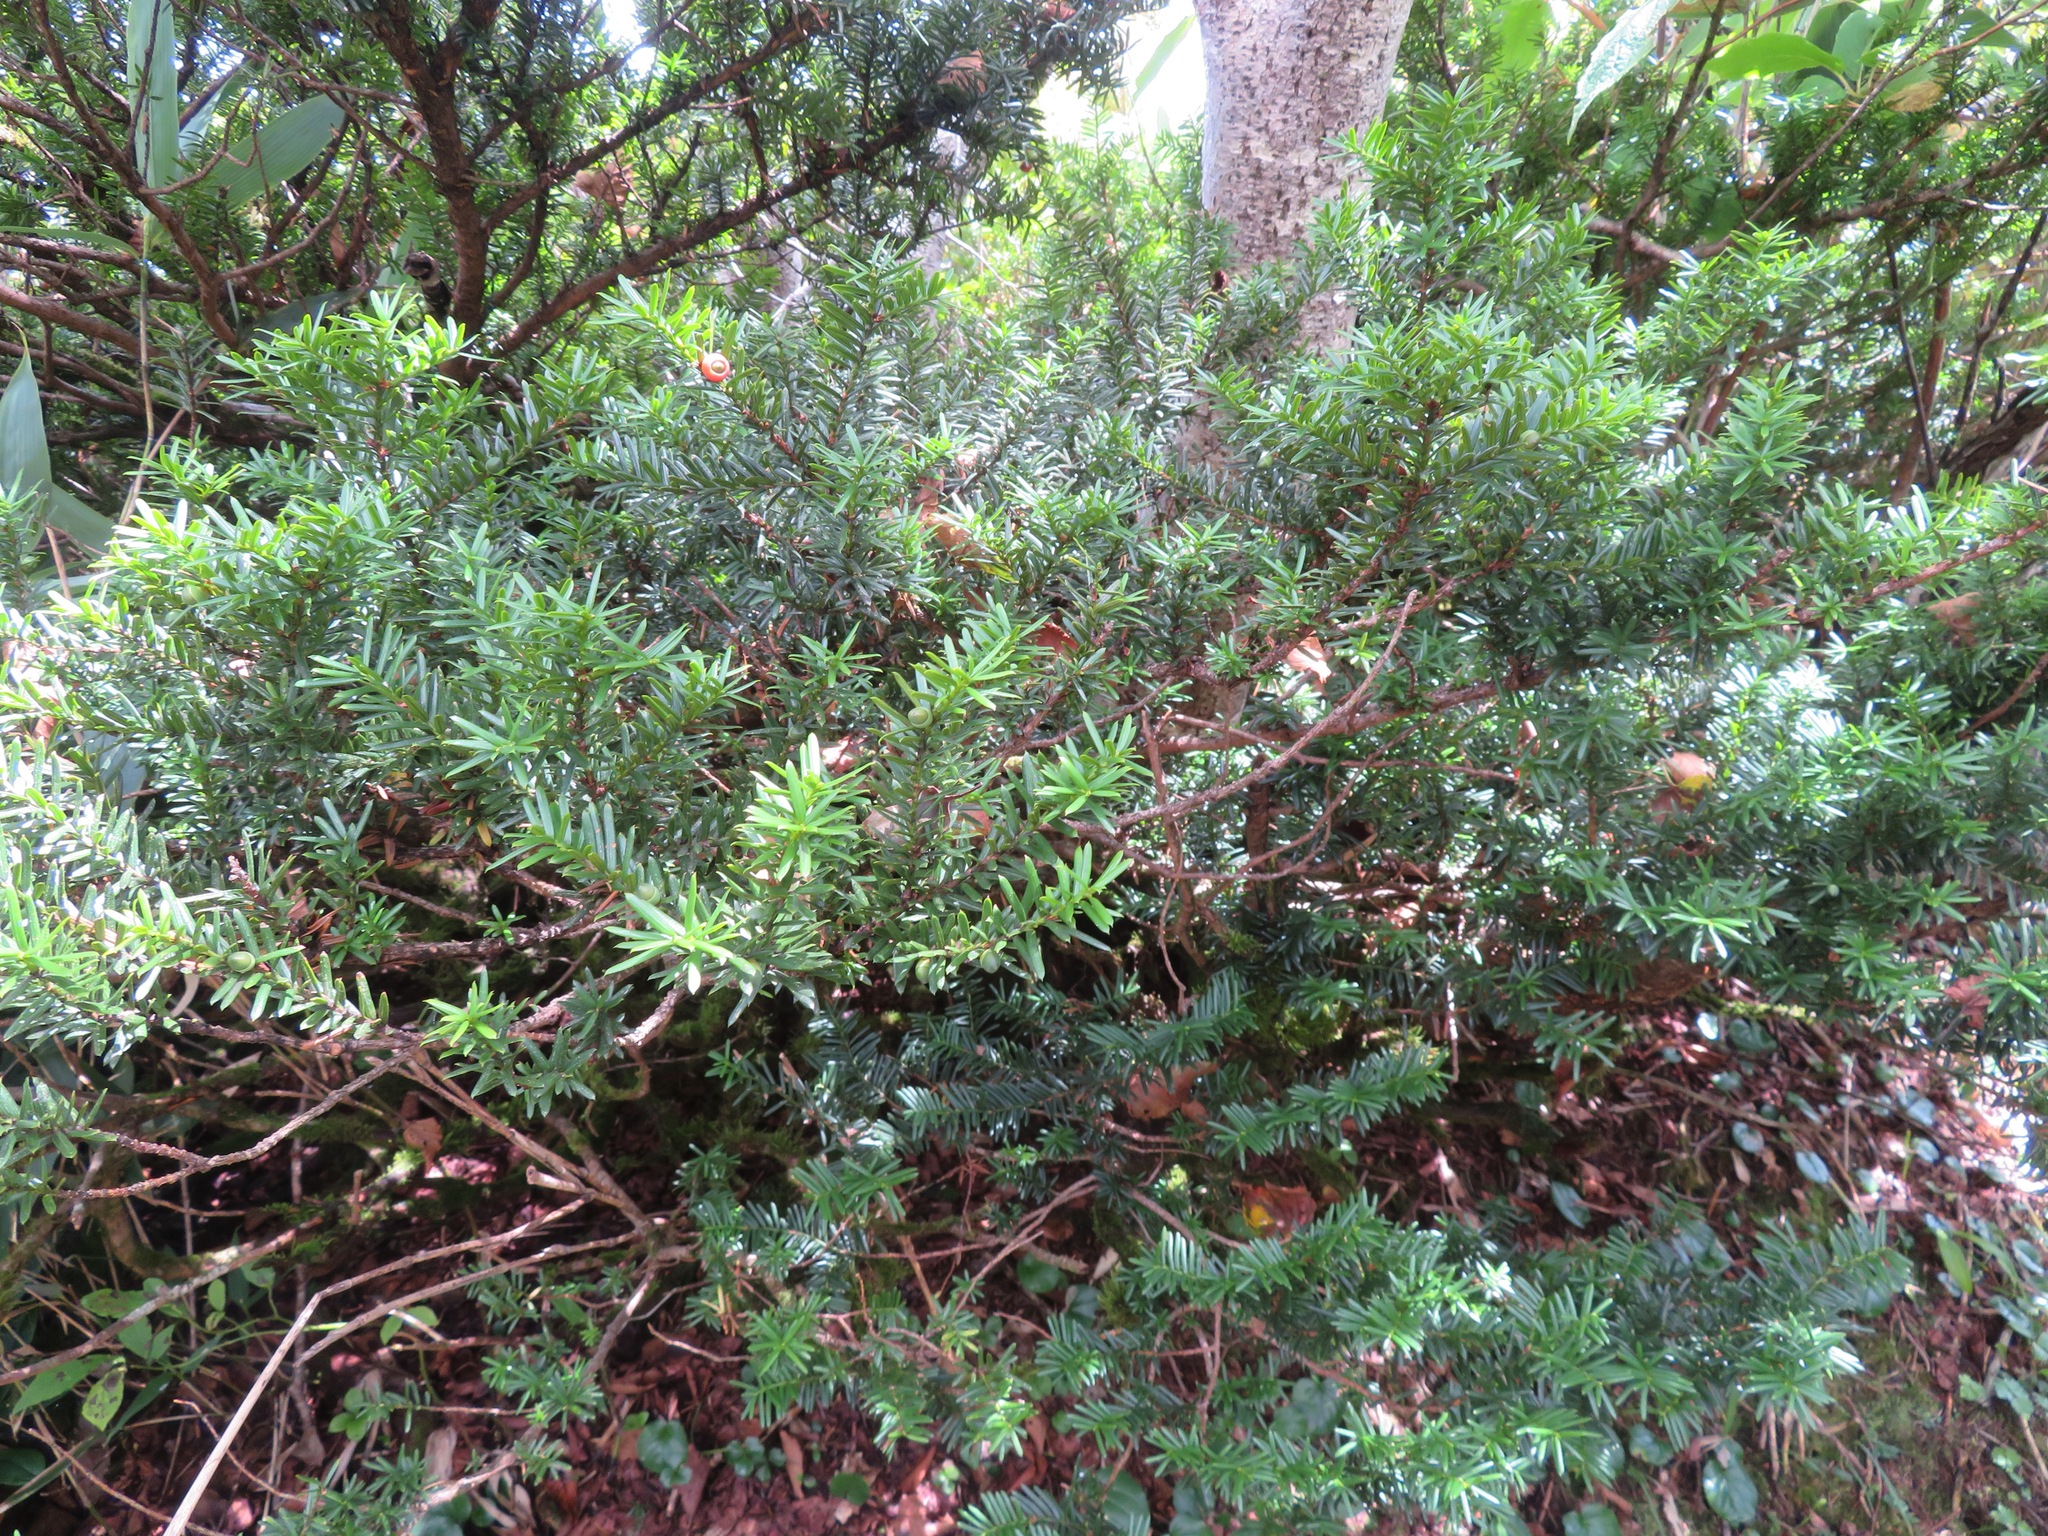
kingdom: Plantae
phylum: Tracheophyta
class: Pinopsida
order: Pinales
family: Taxaceae
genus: Taxus
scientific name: Taxus cuspidata
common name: Japanese yew
